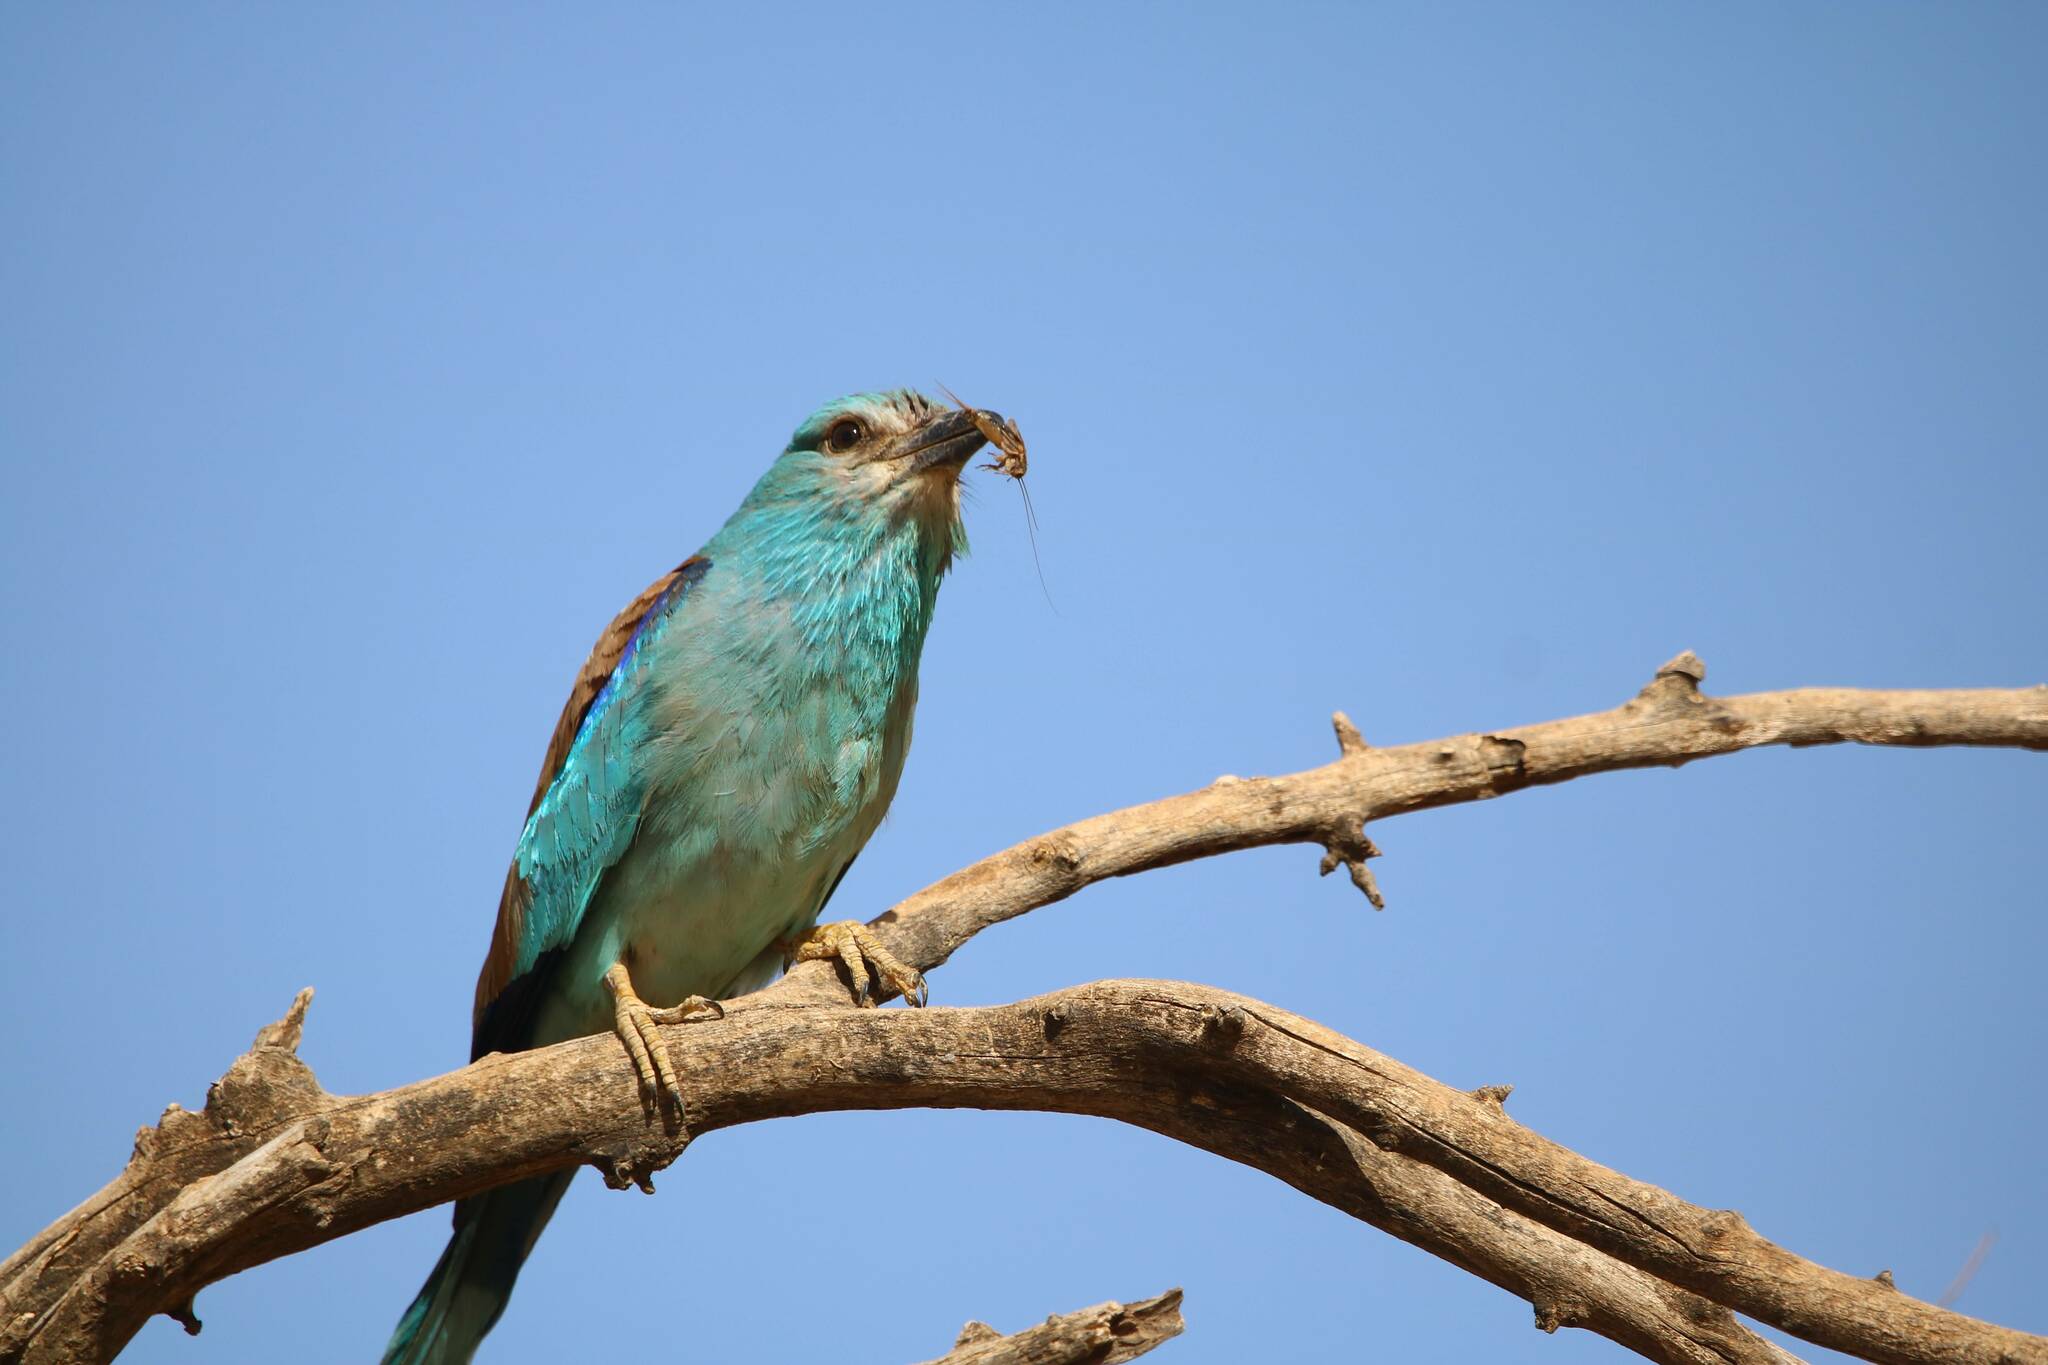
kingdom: Animalia
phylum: Chordata
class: Aves
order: Coraciiformes
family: Coraciidae
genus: Coracias
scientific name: Coracias garrulus
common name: European roller
